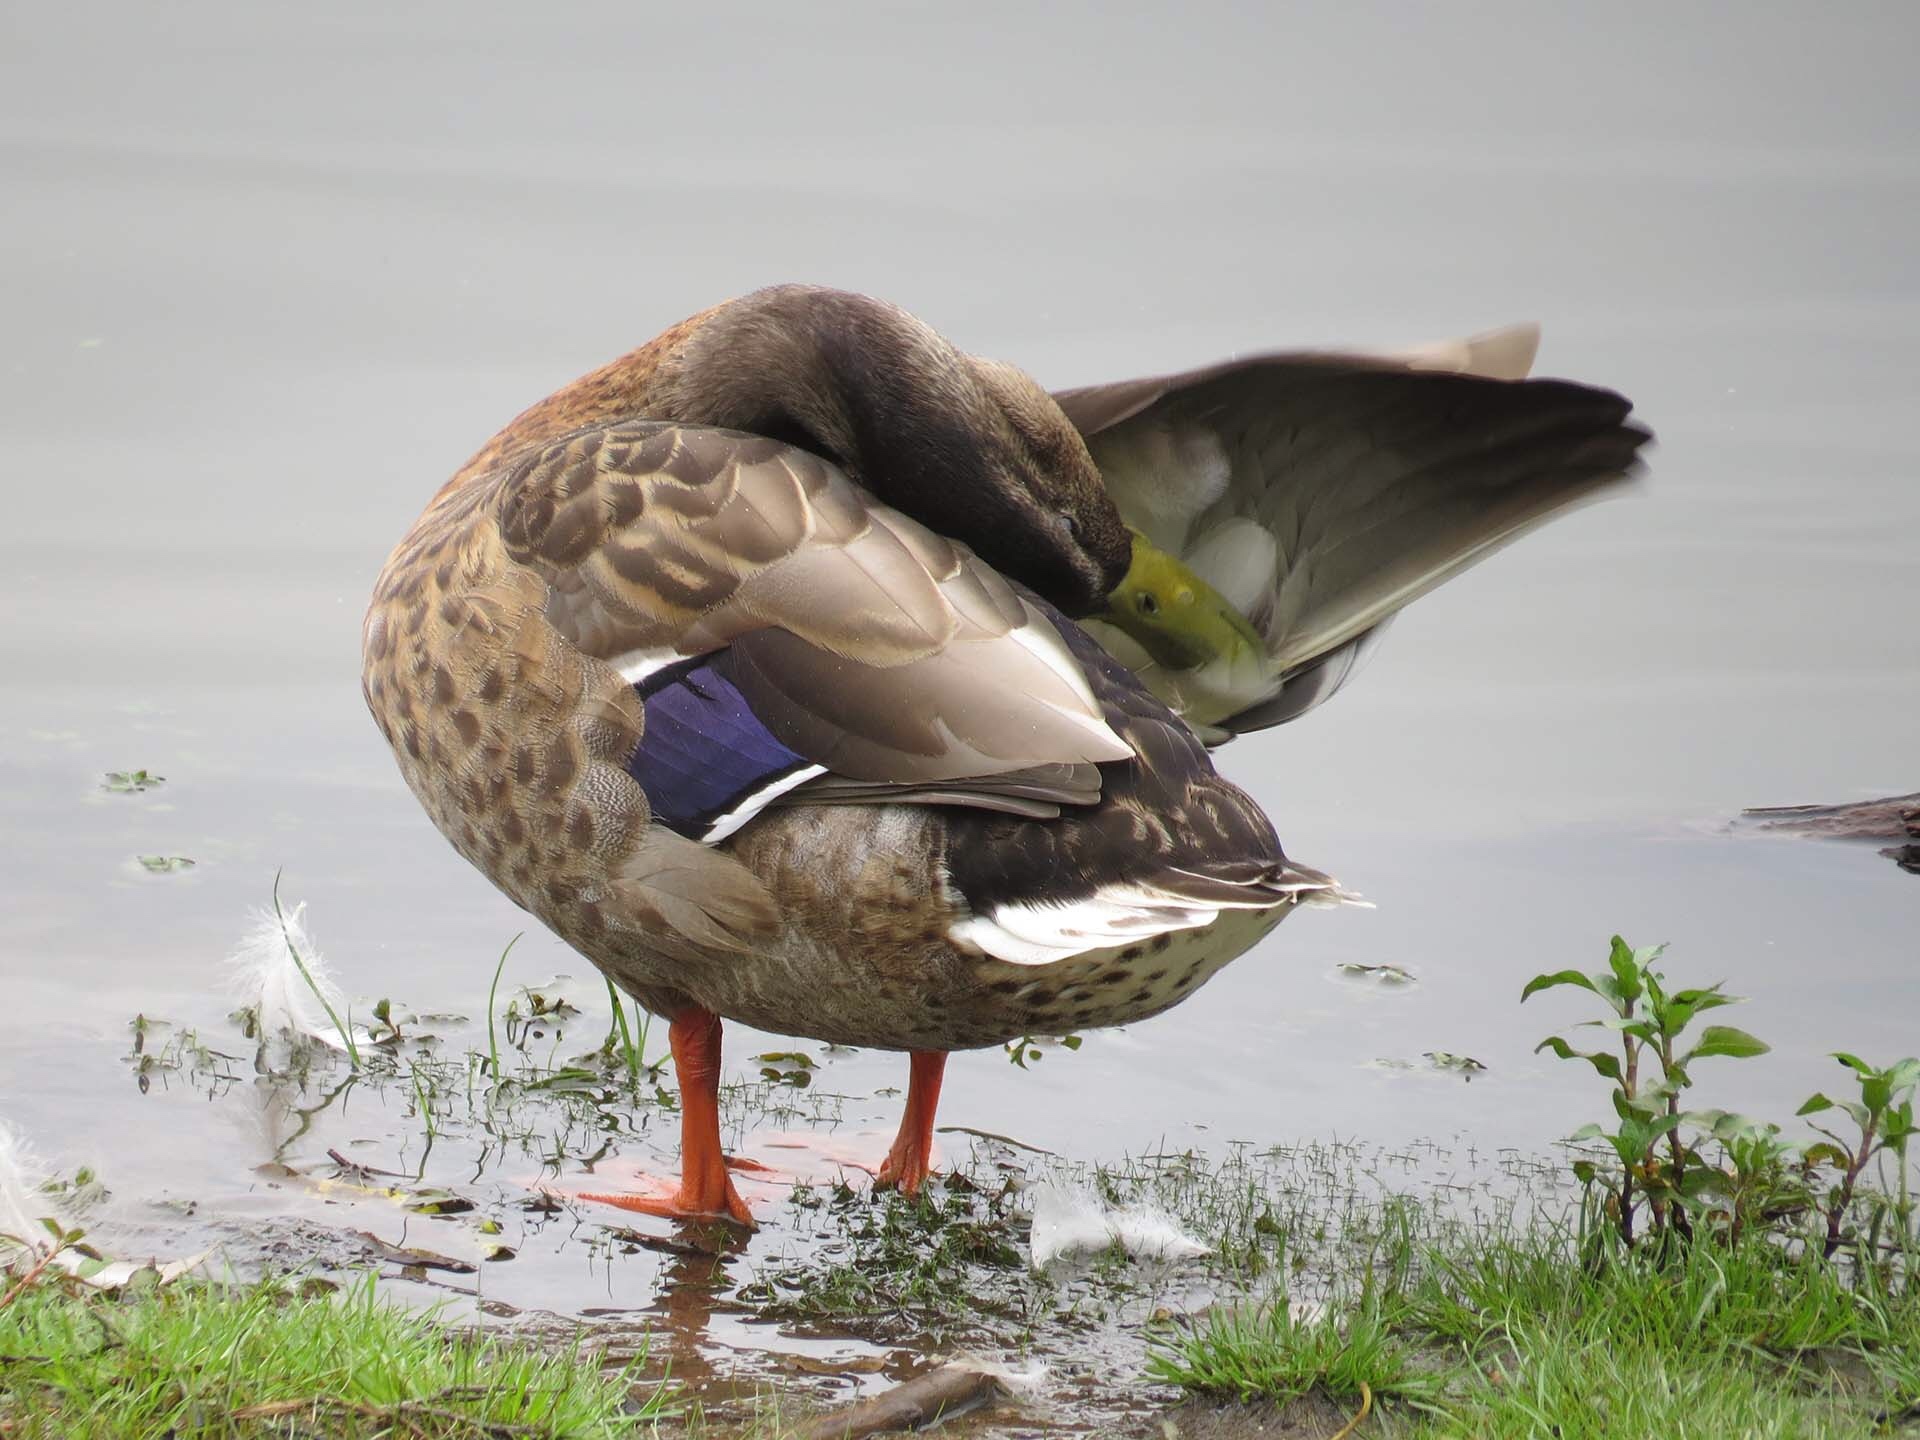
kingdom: Animalia
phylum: Chordata
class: Aves
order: Anseriformes
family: Anatidae
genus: Anas
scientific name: Anas platyrhynchos
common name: Mallard
